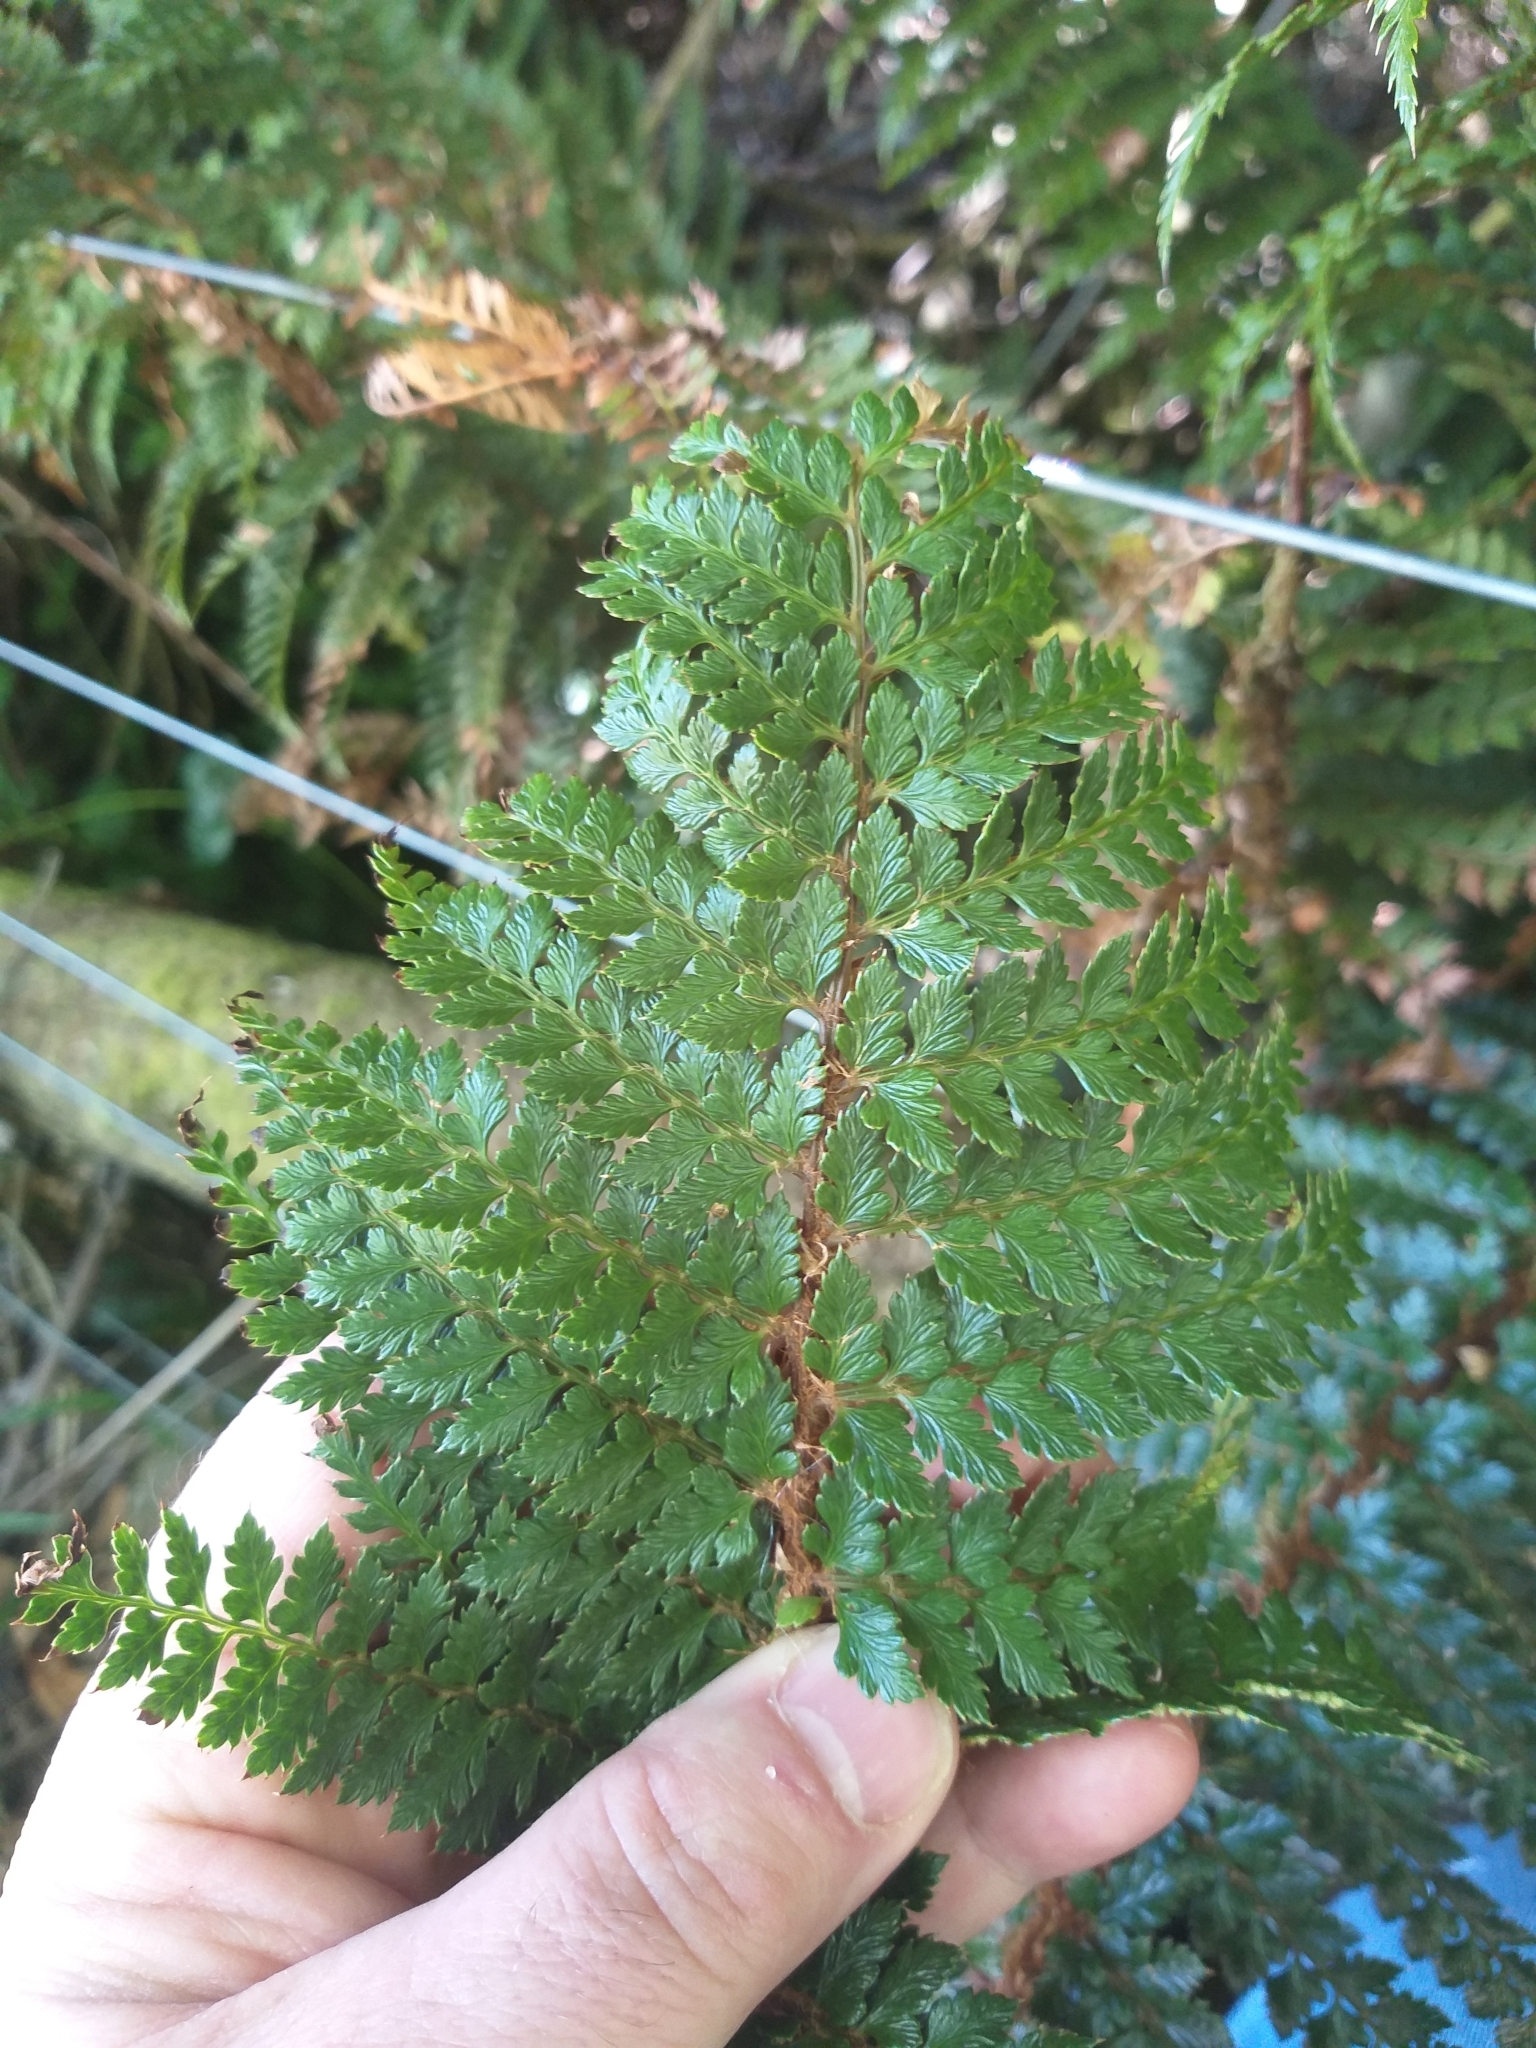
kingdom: Plantae
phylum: Tracheophyta
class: Polypodiopsida
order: Polypodiales
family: Dryopteridaceae
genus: Polystichum
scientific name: Polystichum vestitum
